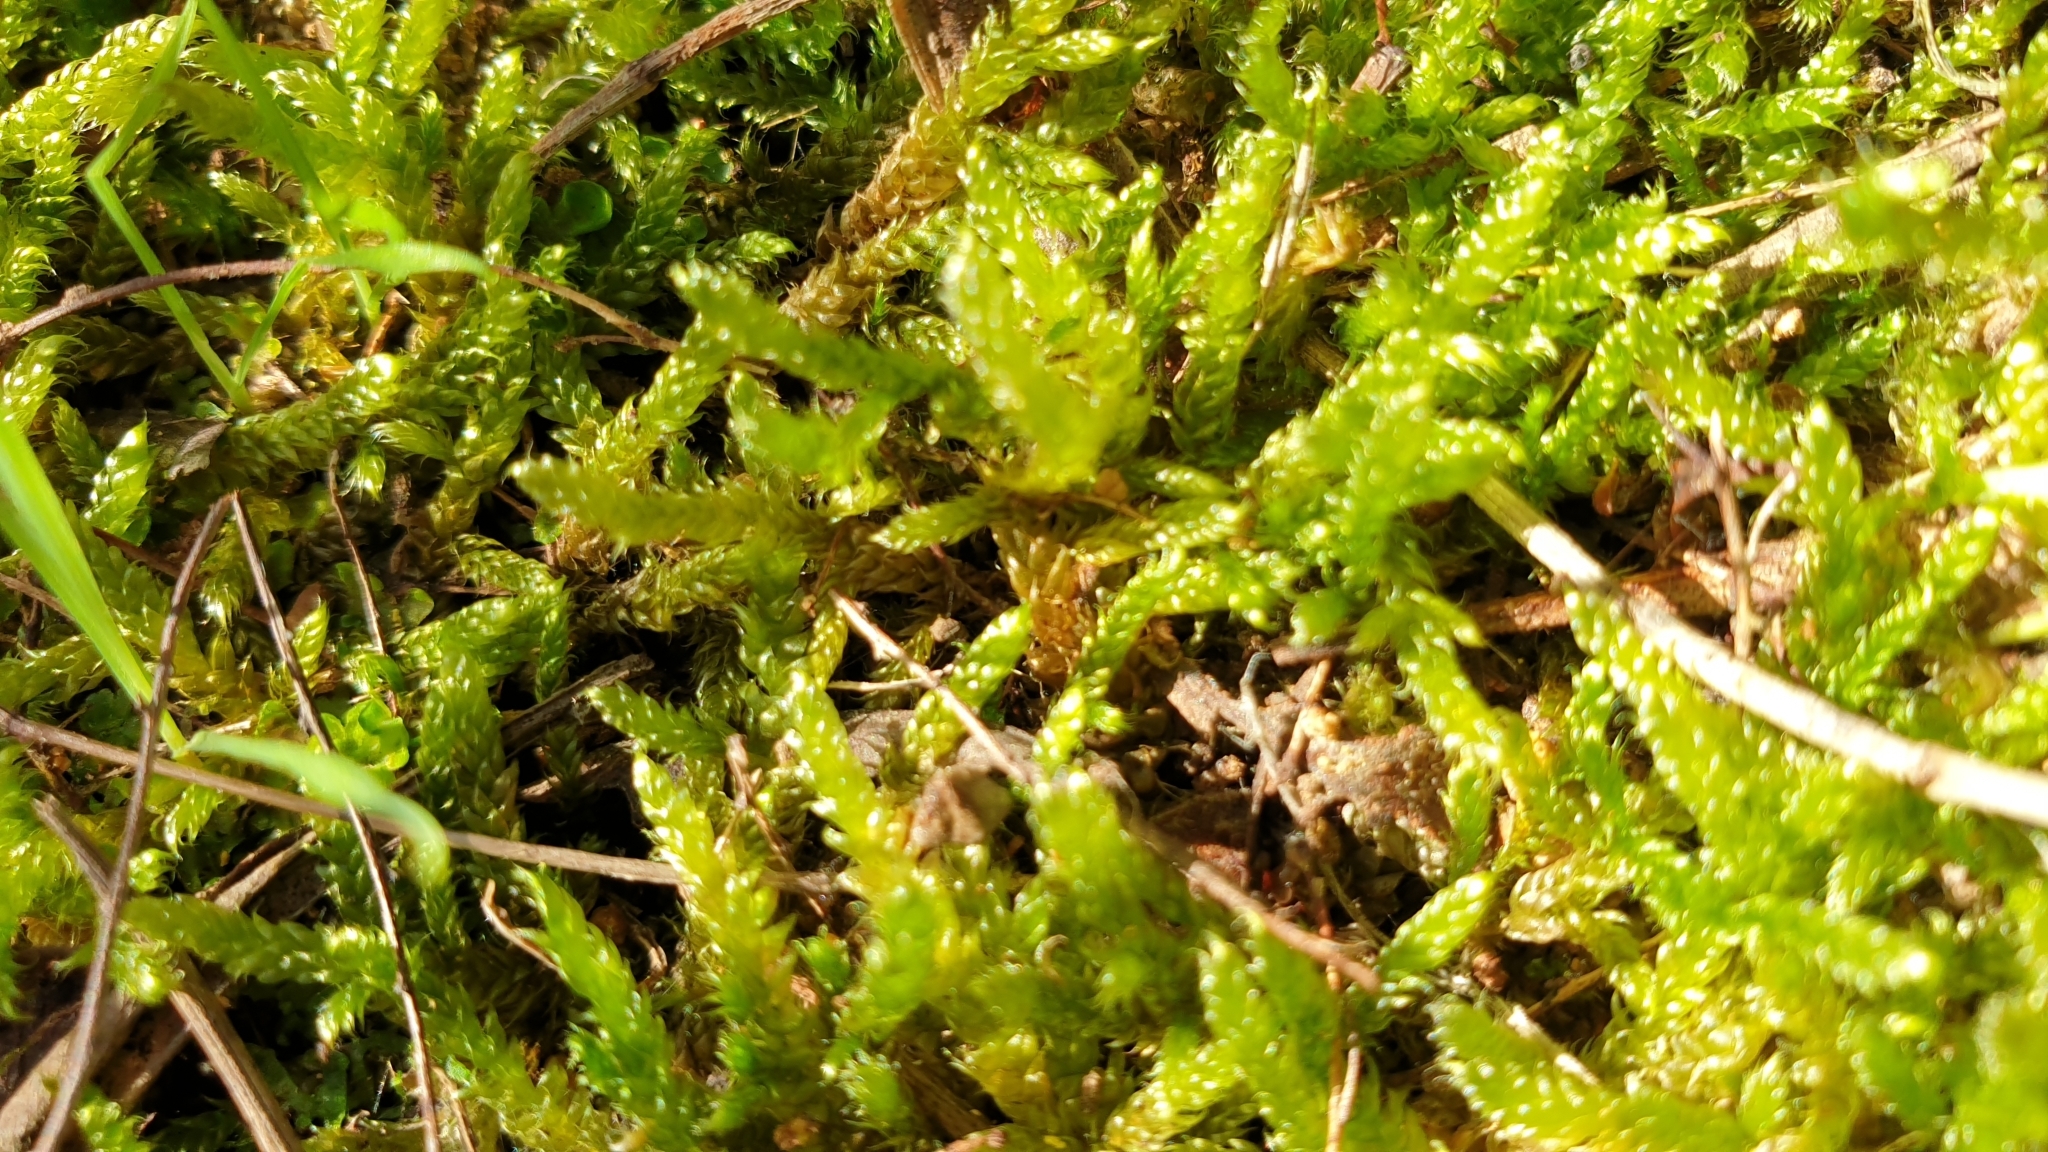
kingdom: Plantae
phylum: Bryophyta
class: Bryopsida
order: Hypnales
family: Hypnaceae
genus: Hypnum
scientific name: Hypnum cupressiforme
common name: Cypress-leaved plait-moss
